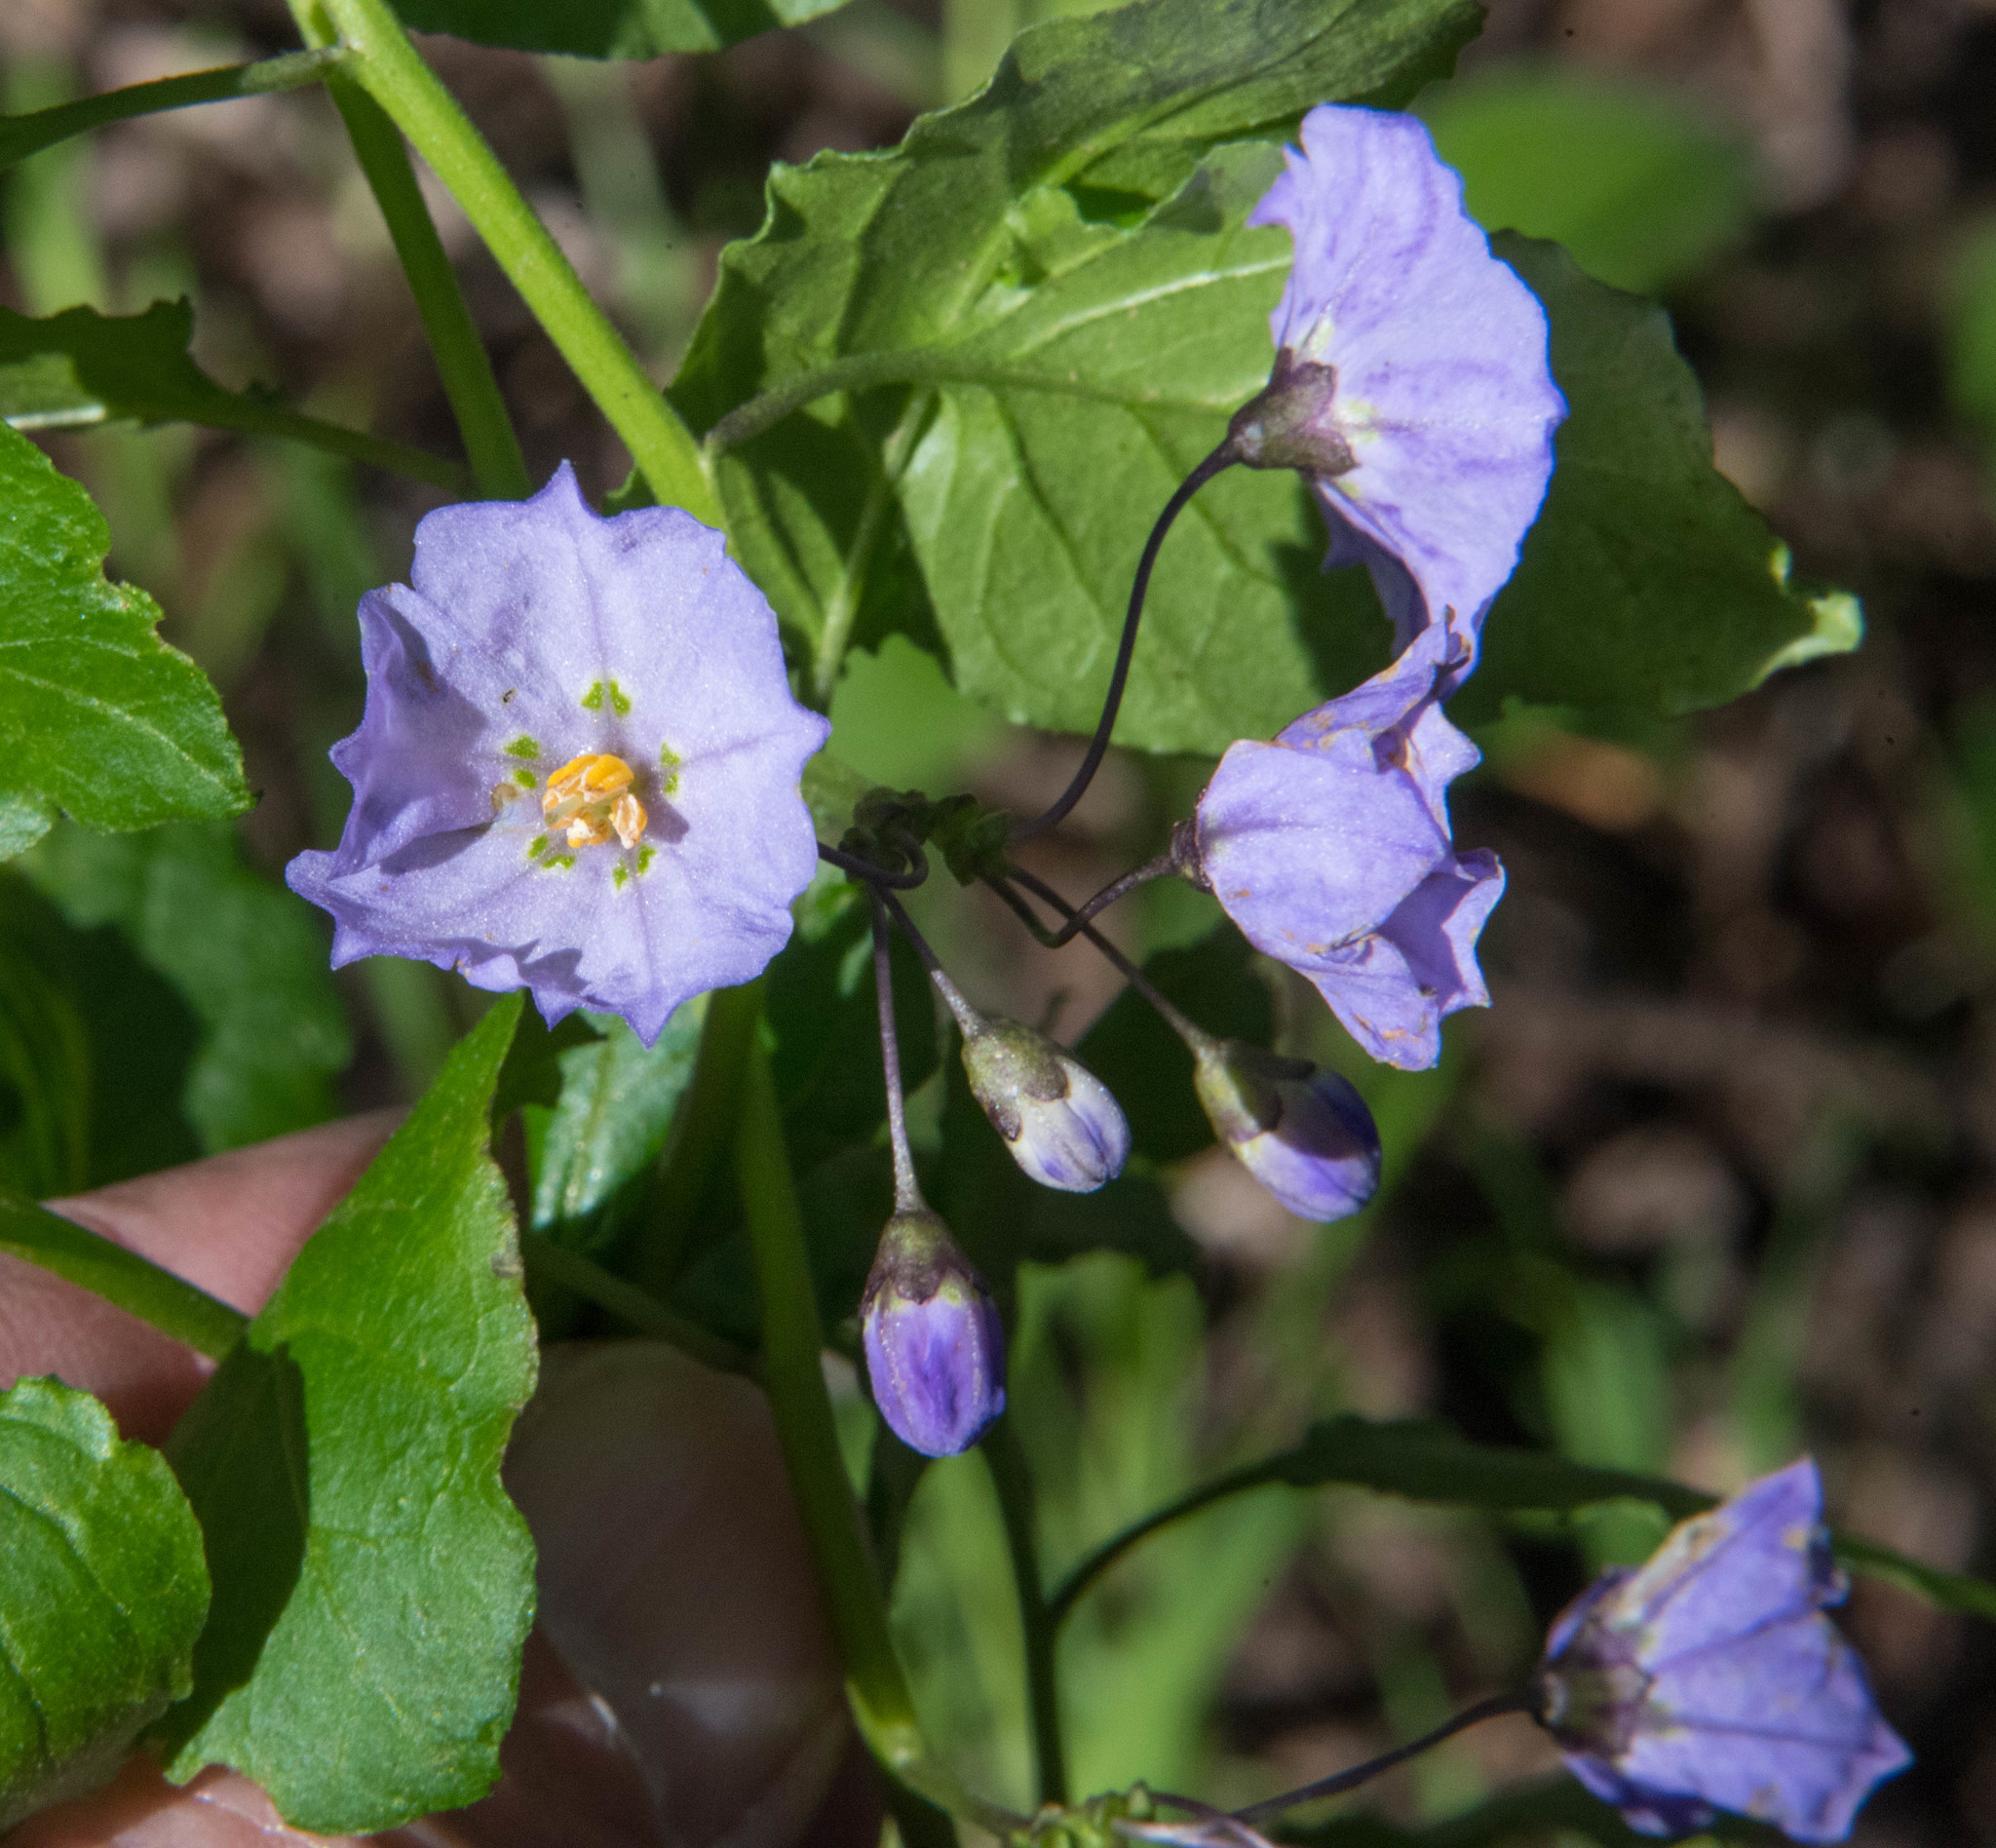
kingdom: Plantae
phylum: Tracheophyta
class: Magnoliopsida
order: Solanales
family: Solanaceae
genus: Solanum
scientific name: Solanum umbelliferum
